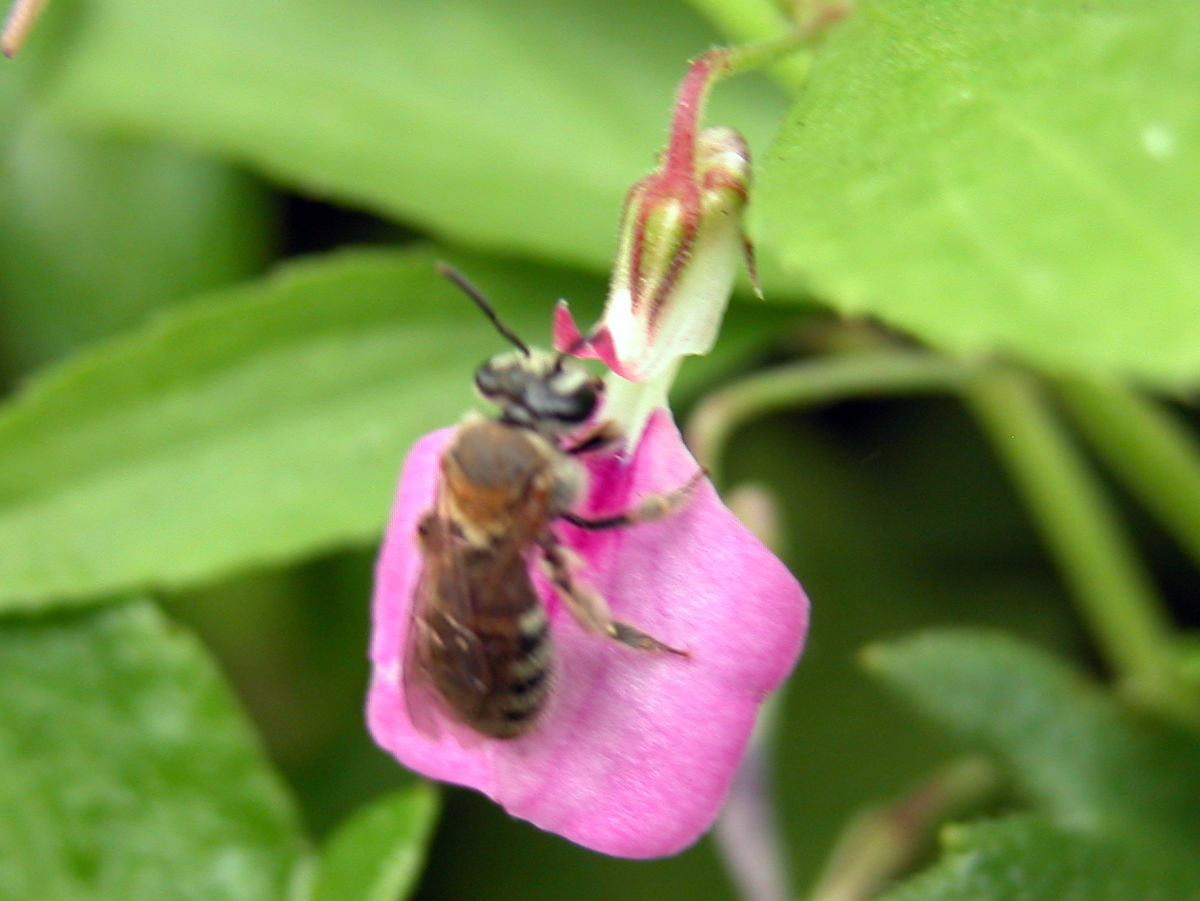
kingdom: Animalia
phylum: Arthropoda
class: Insecta
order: Hymenoptera
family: Halictidae
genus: Austronomia
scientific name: Austronomia
